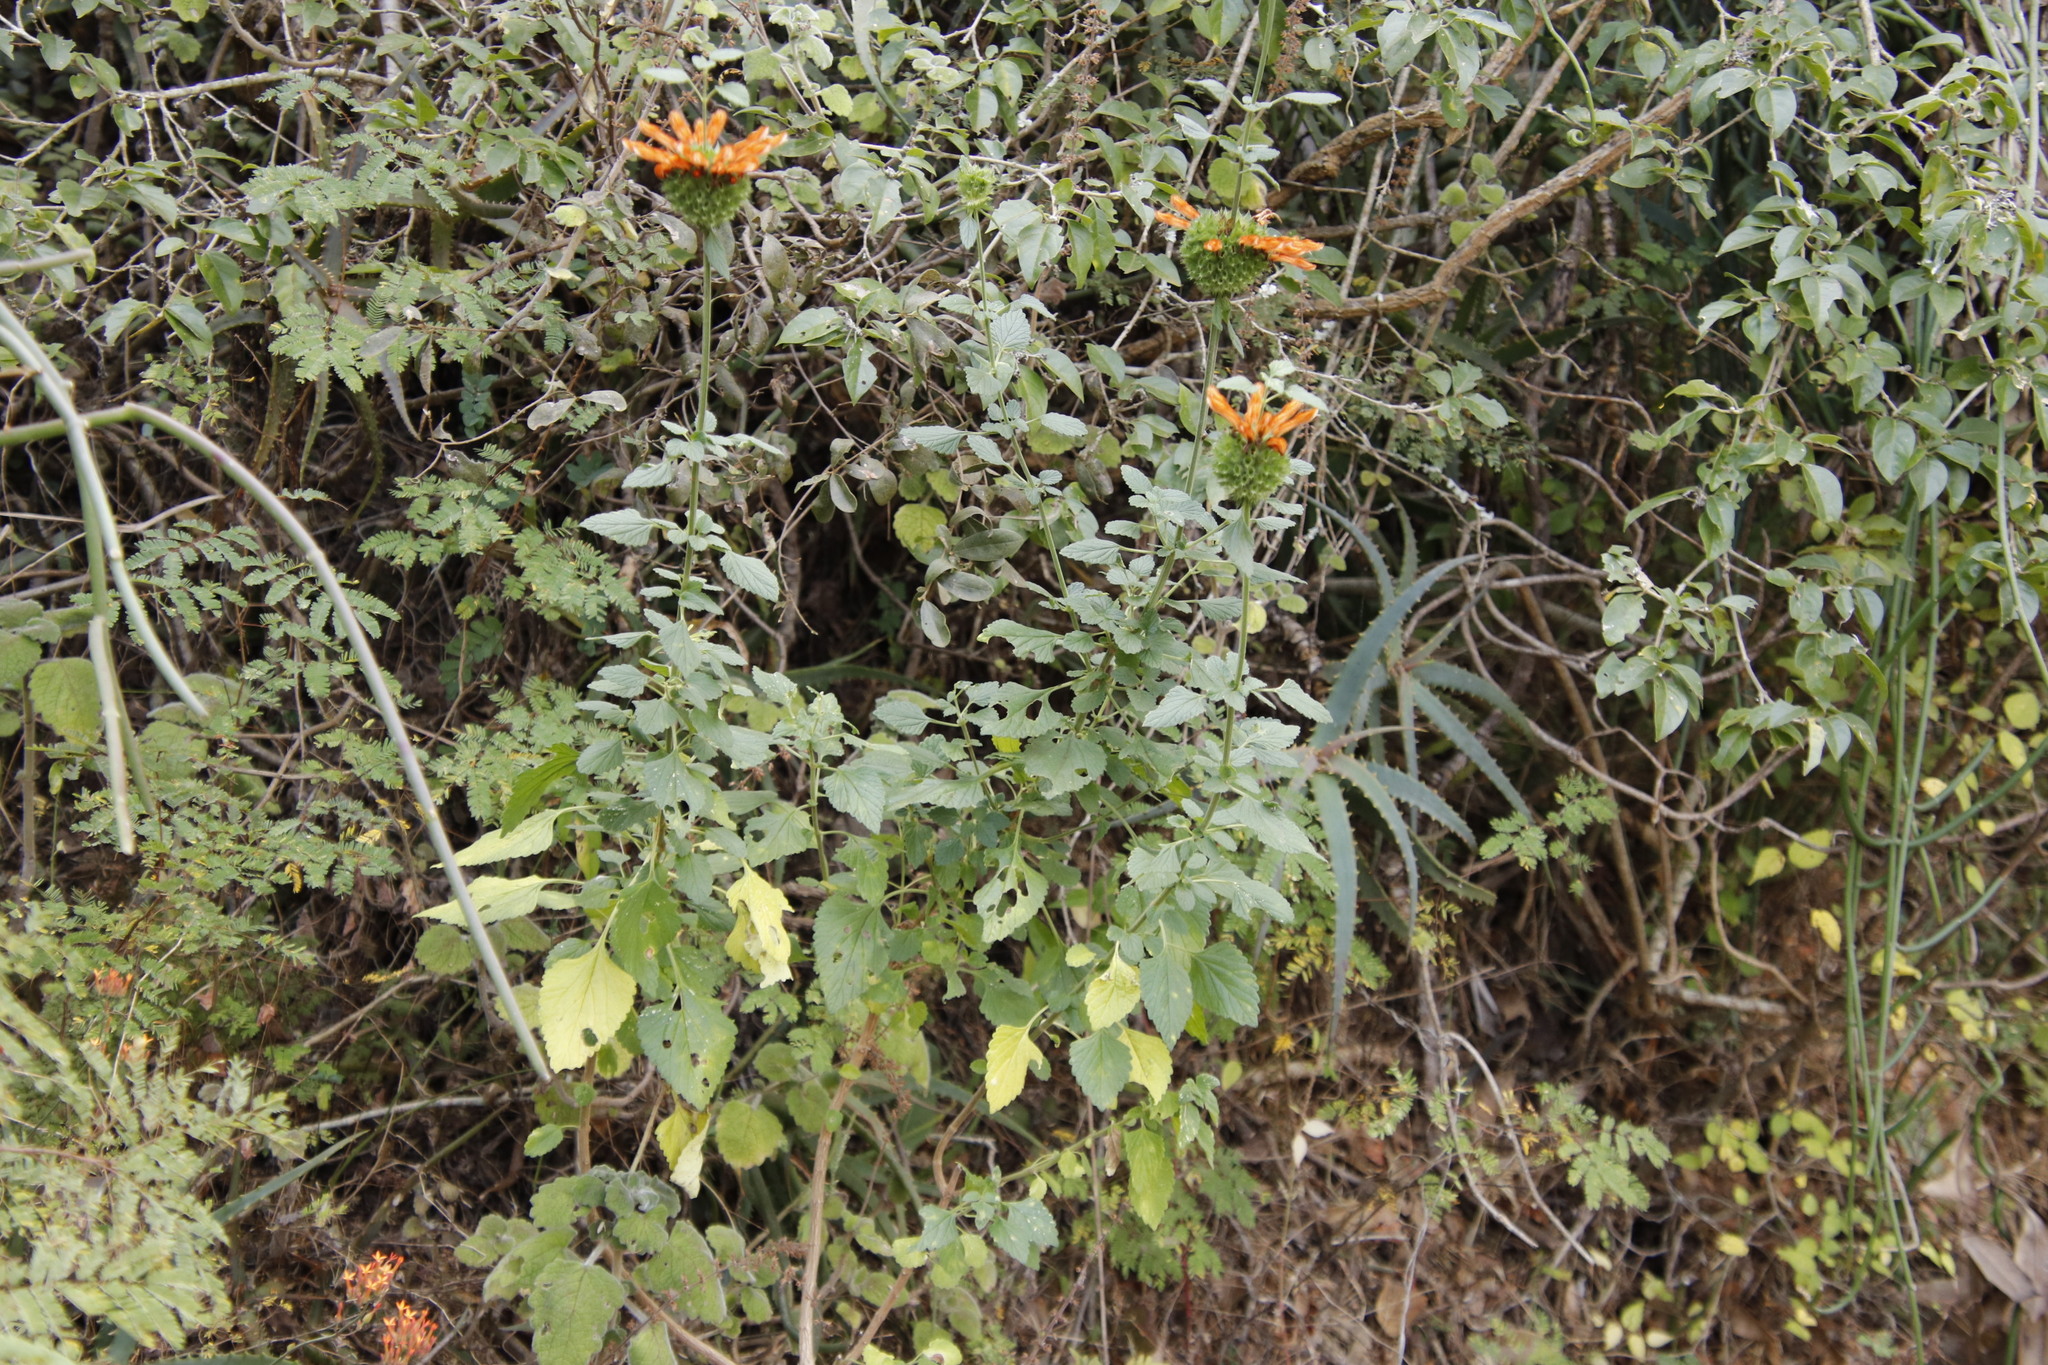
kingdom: Plantae
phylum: Tracheophyta
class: Magnoliopsida
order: Lamiales
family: Lamiaceae
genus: Leonotis
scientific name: Leonotis ocymifolia
